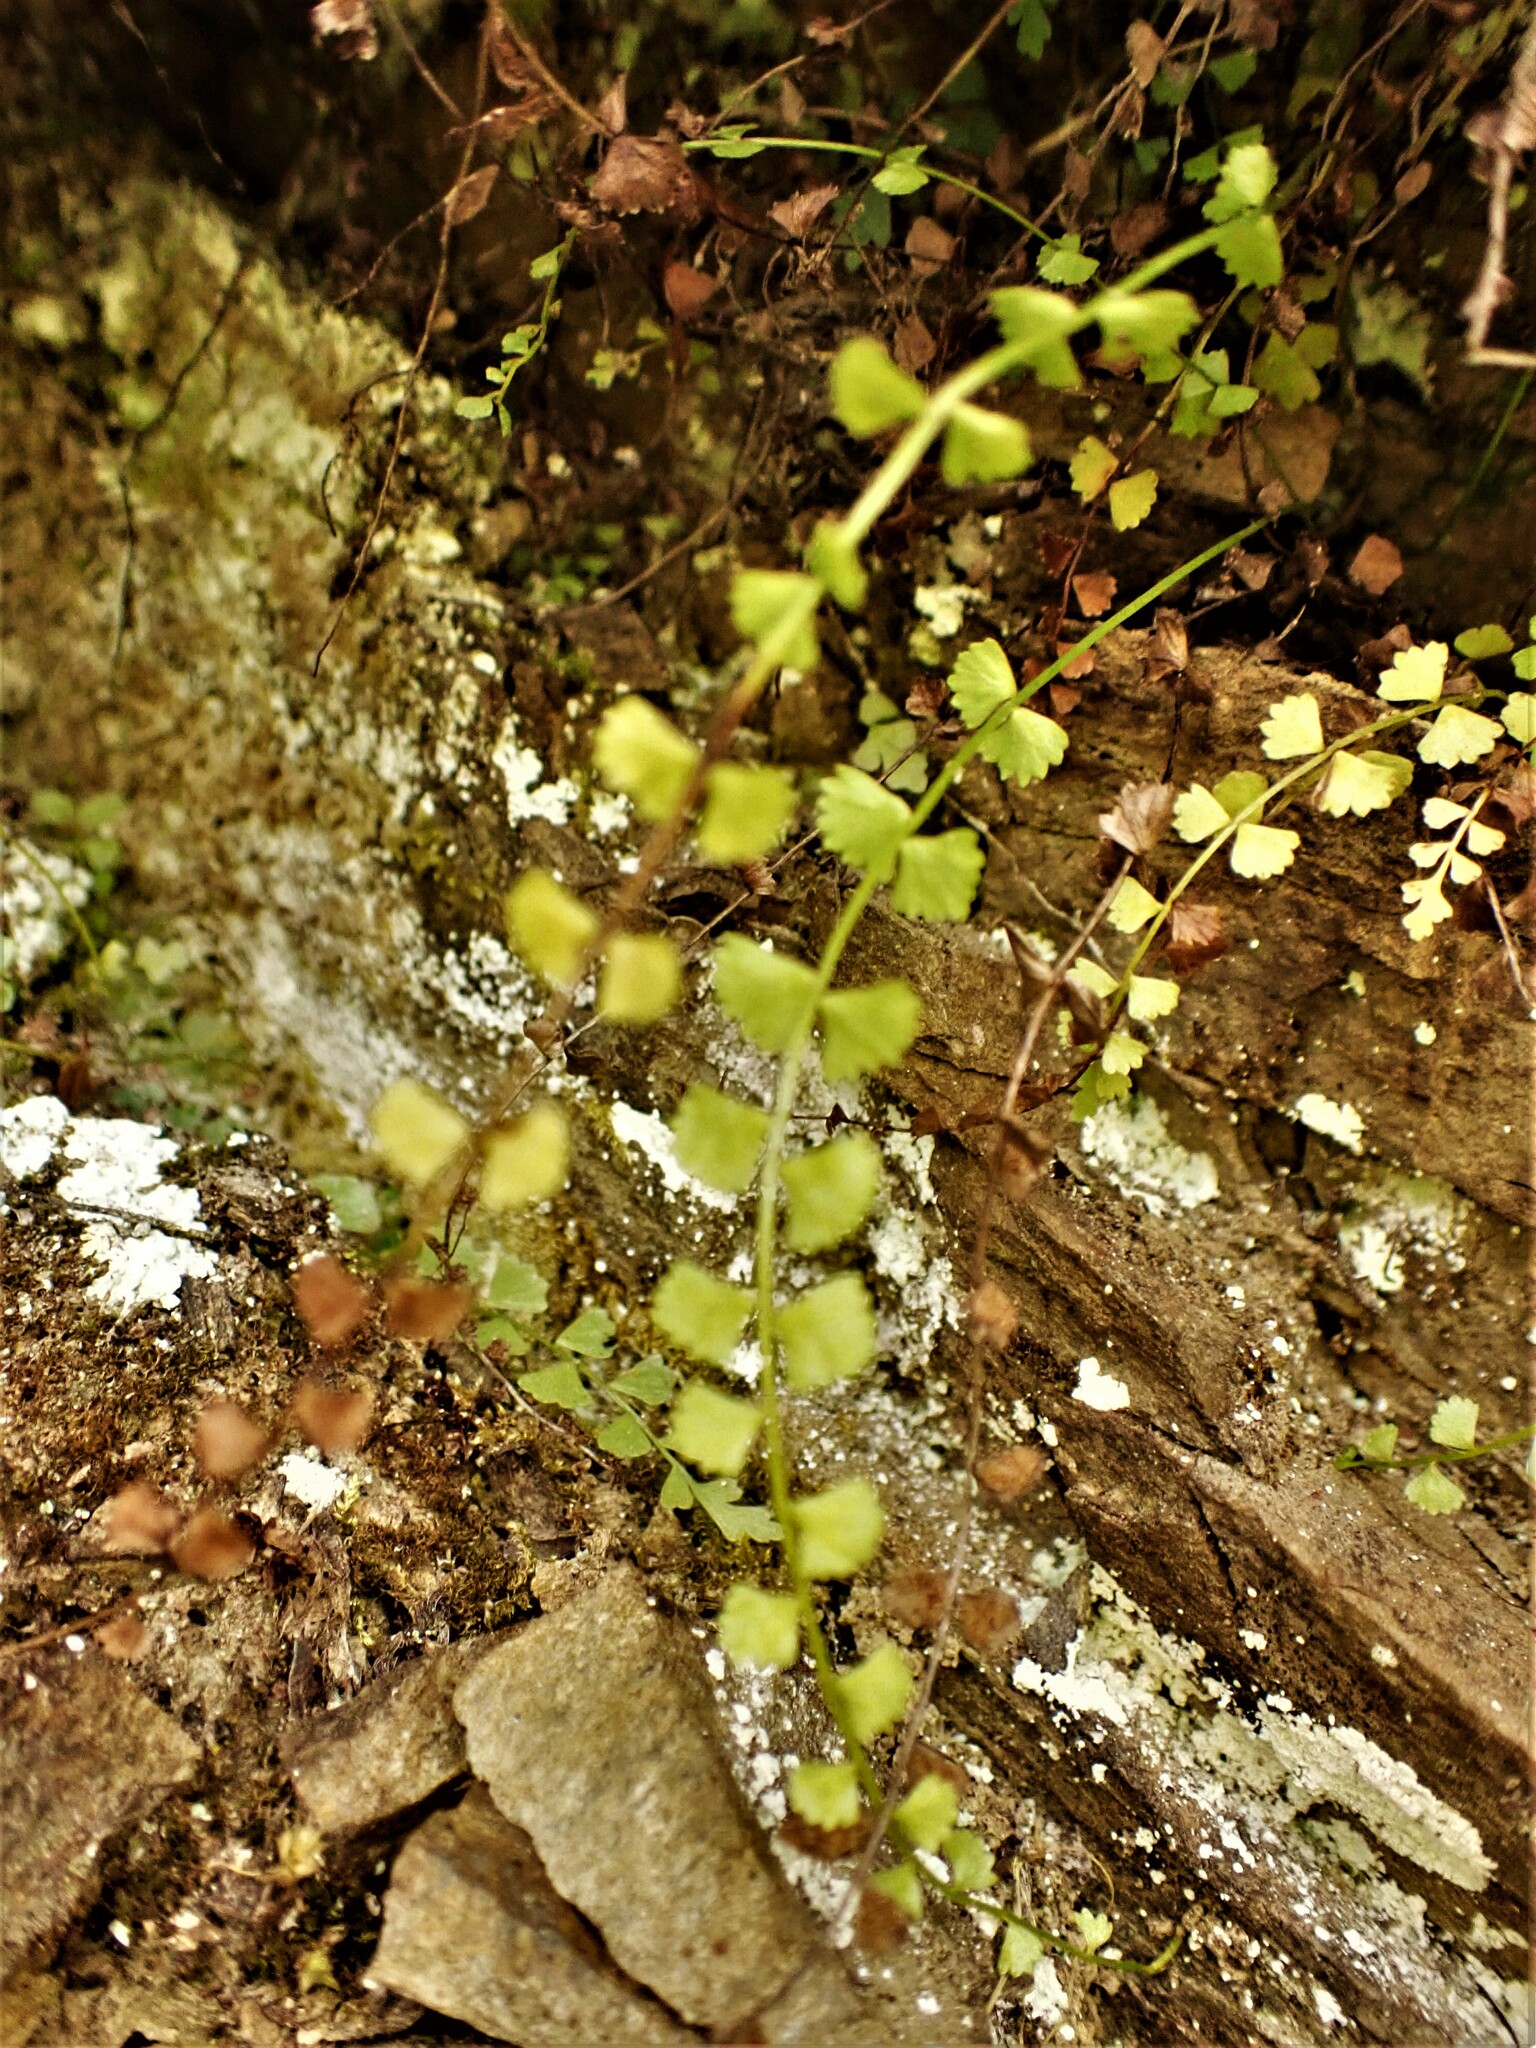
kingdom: Plantae
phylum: Tracheophyta
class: Polypodiopsida
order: Polypodiales
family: Aspleniaceae
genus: Asplenium
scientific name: Asplenium flabellifolium
